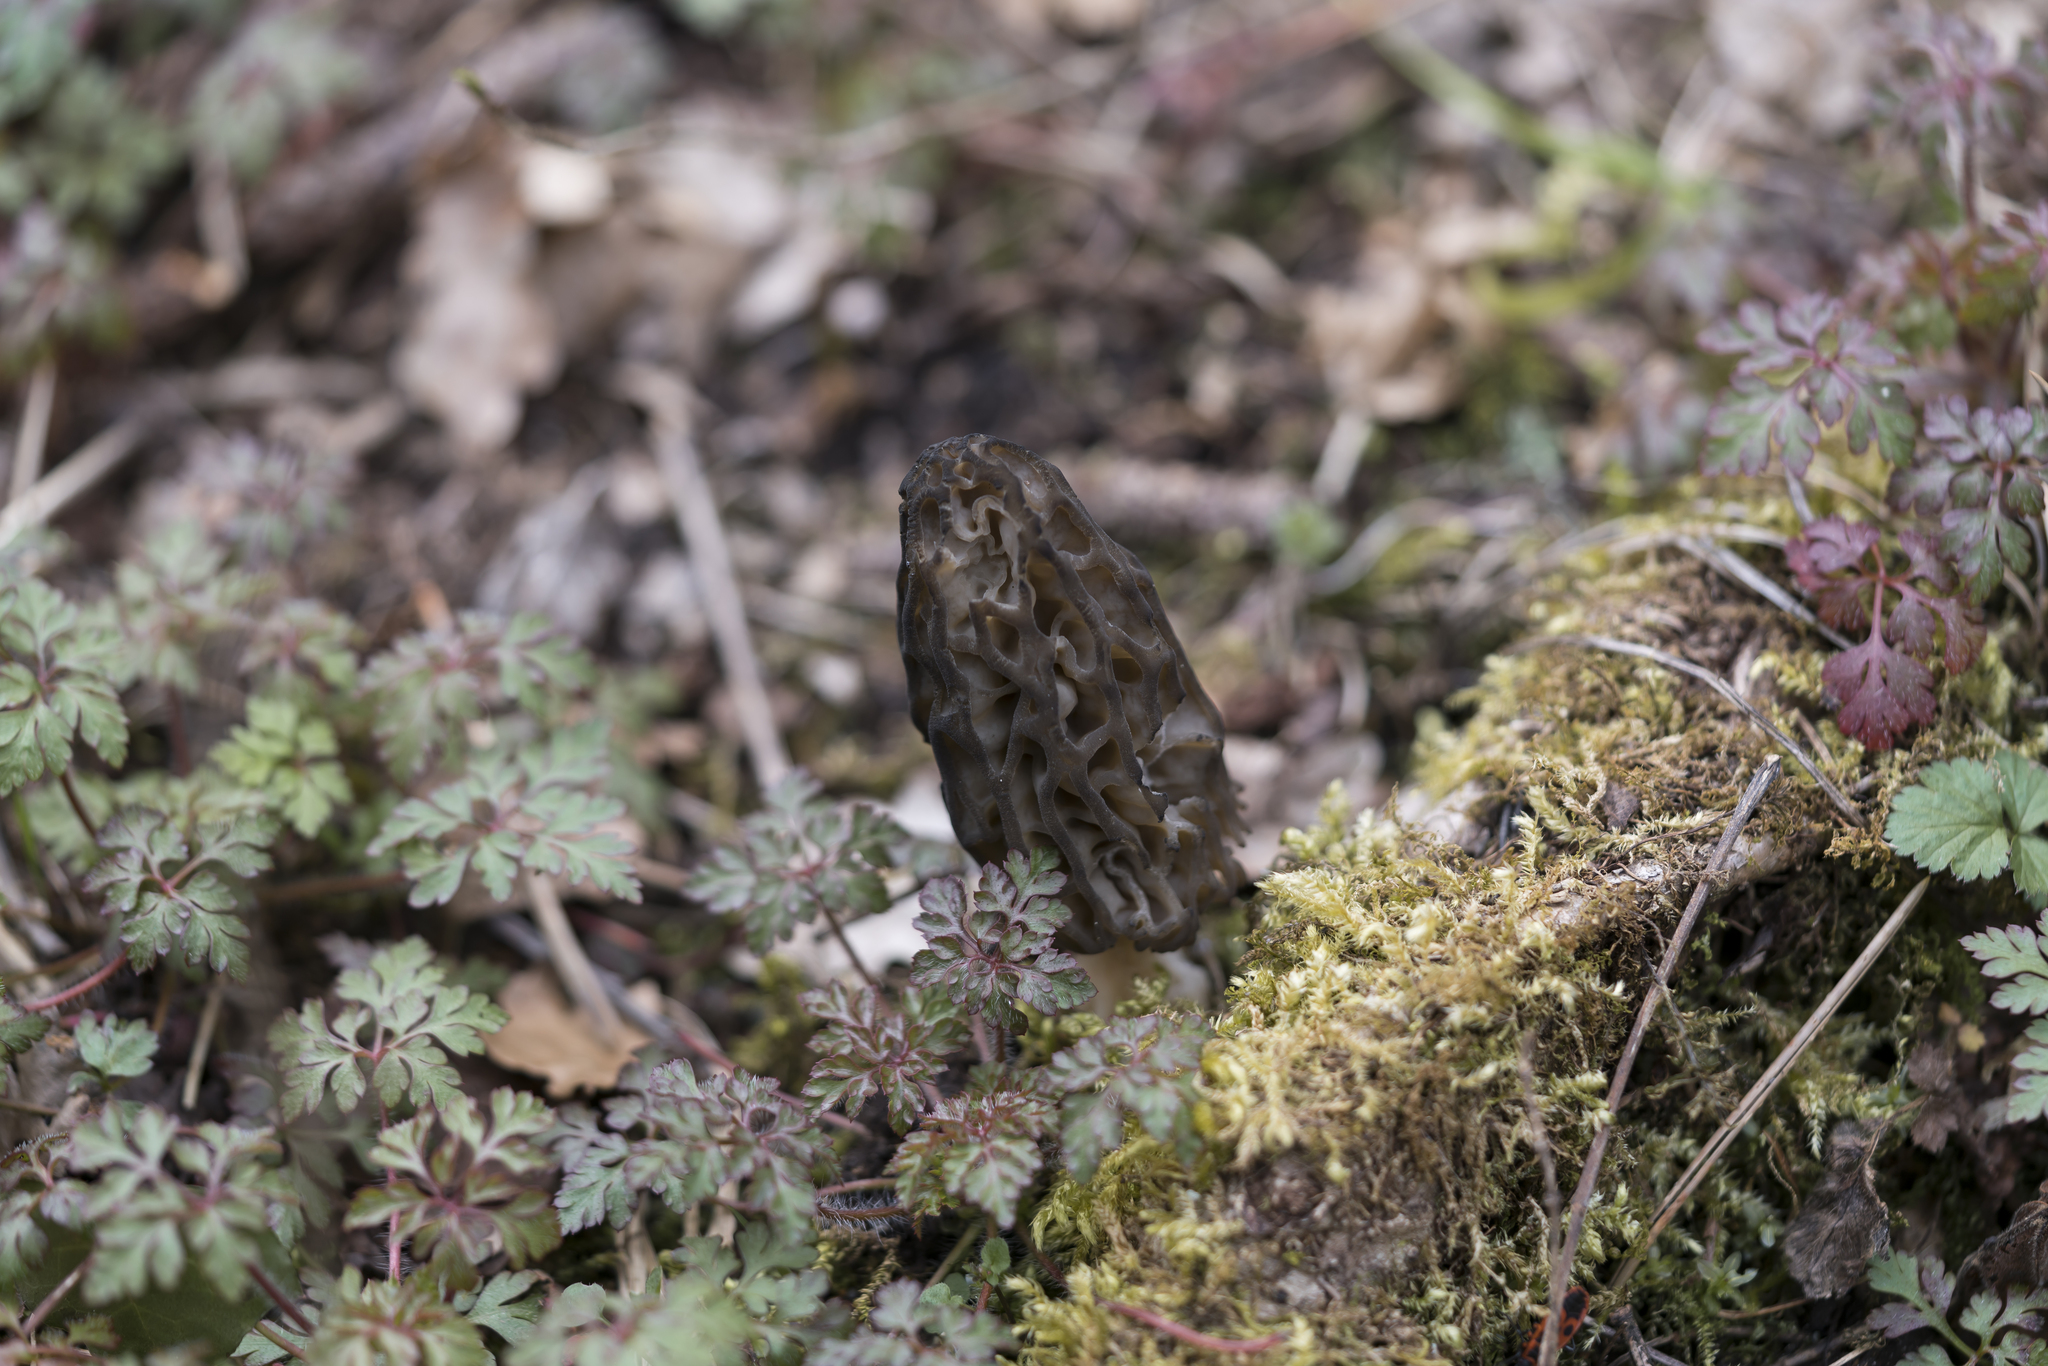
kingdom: Fungi
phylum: Ascomycota
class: Pezizomycetes
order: Pezizales
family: Morchellaceae
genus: Morchella
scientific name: Morchella
